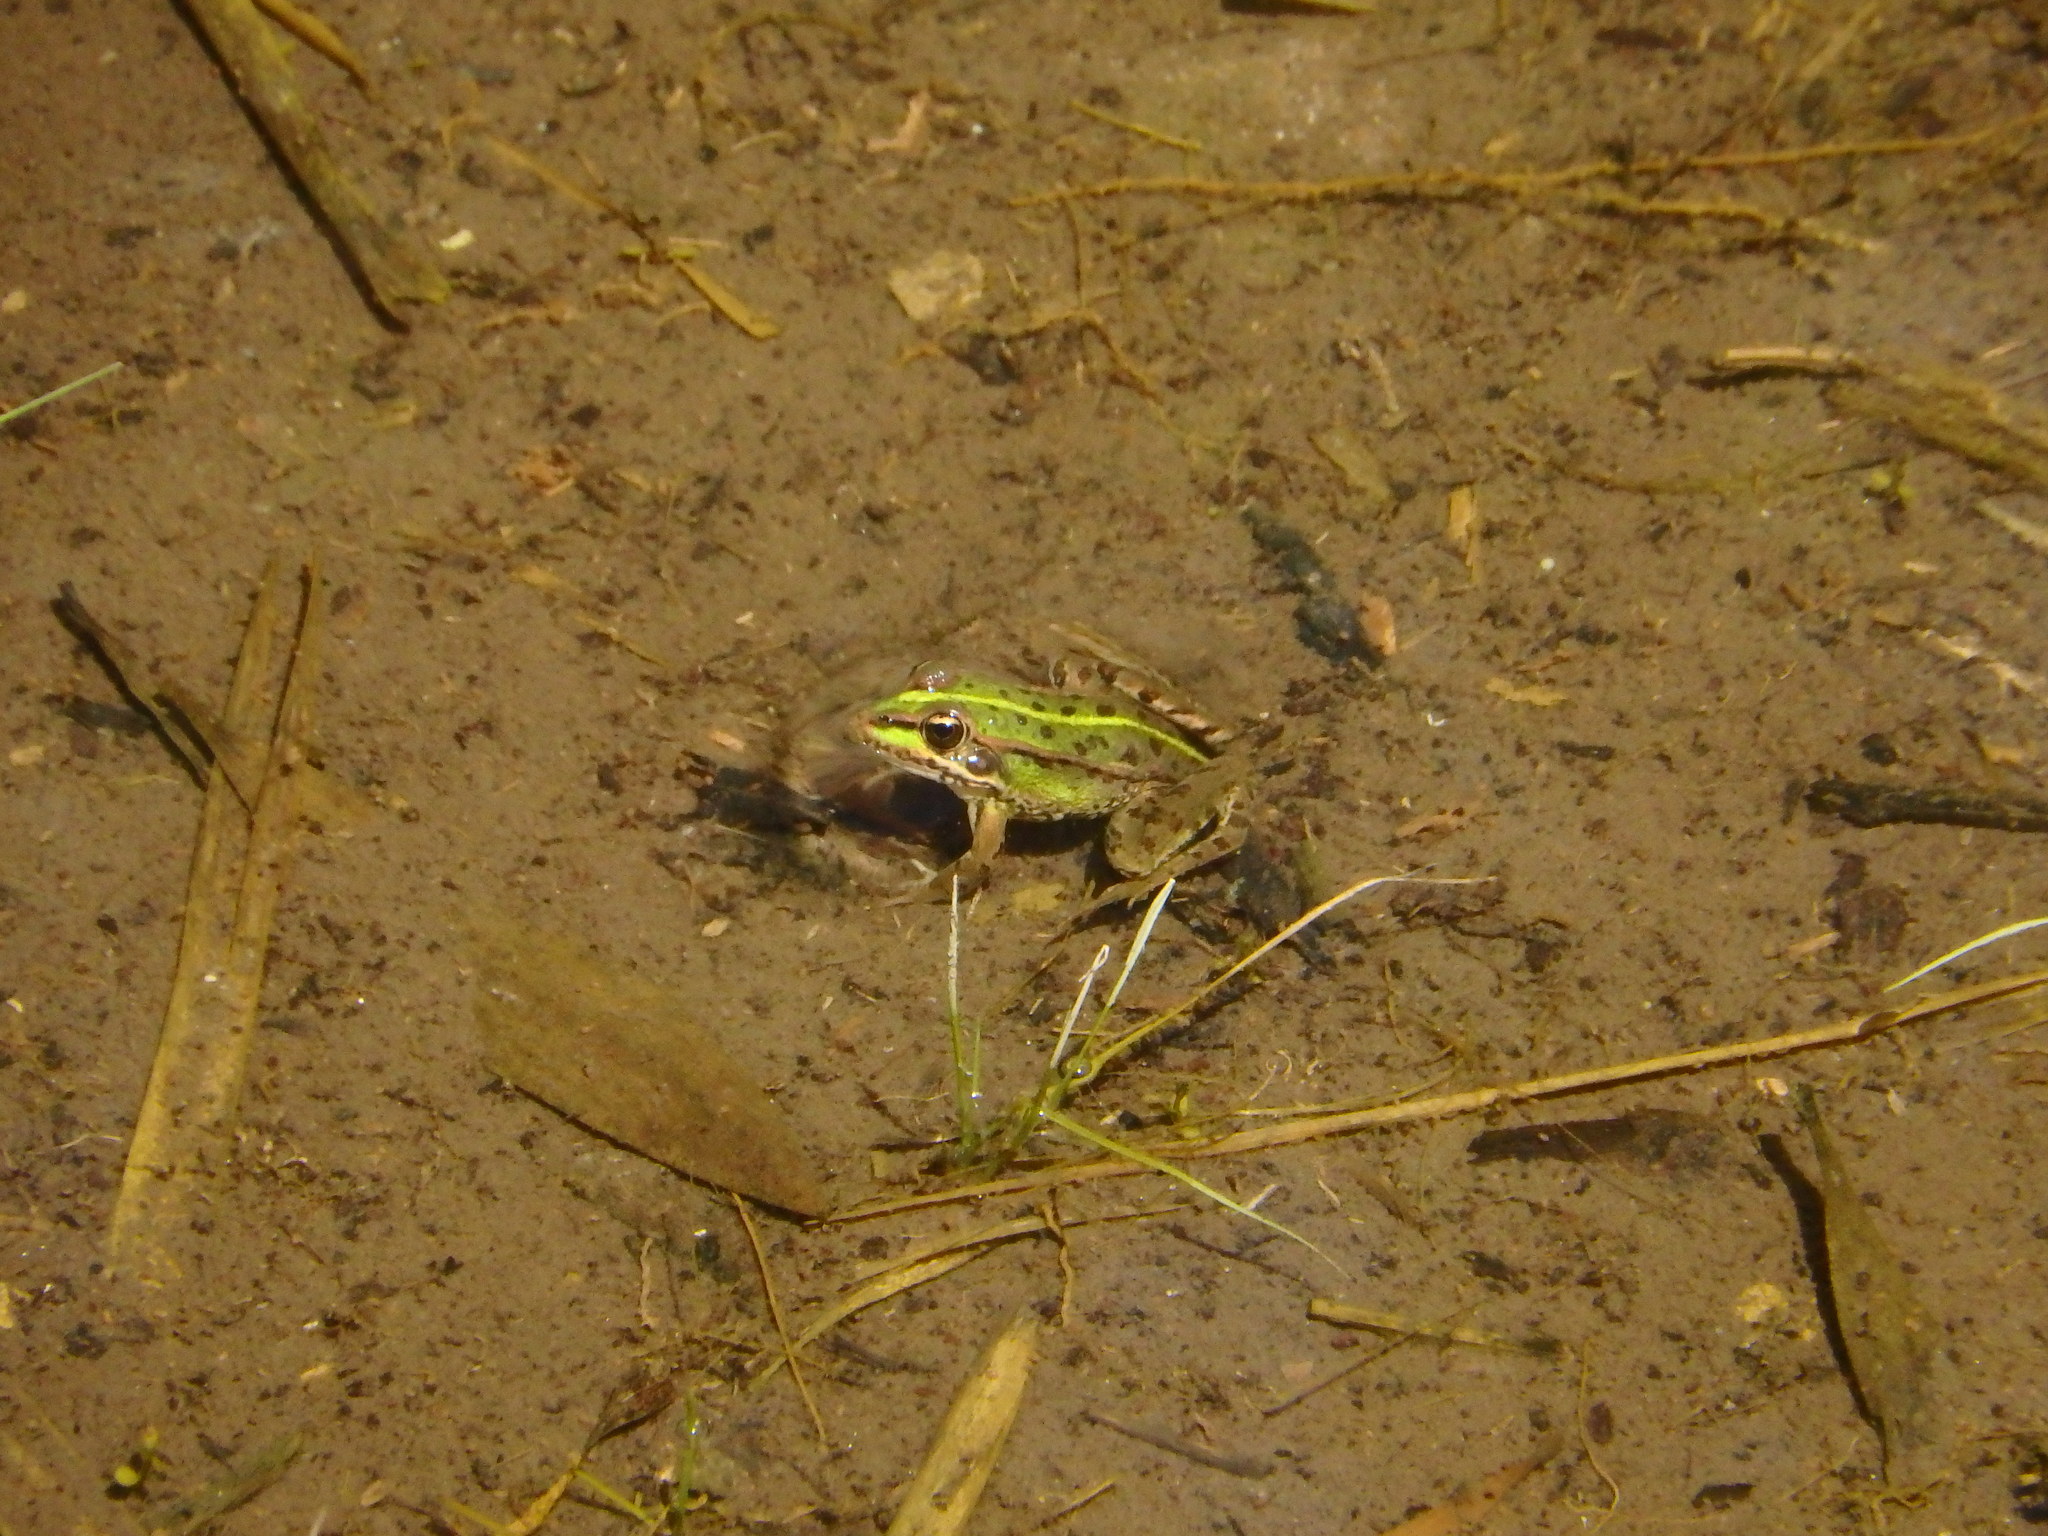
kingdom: Animalia
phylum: Chordata
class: Amphibia
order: Anura
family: Ranidae
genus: Pelophylax
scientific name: Pelophylax perezi
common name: Perez's frog
